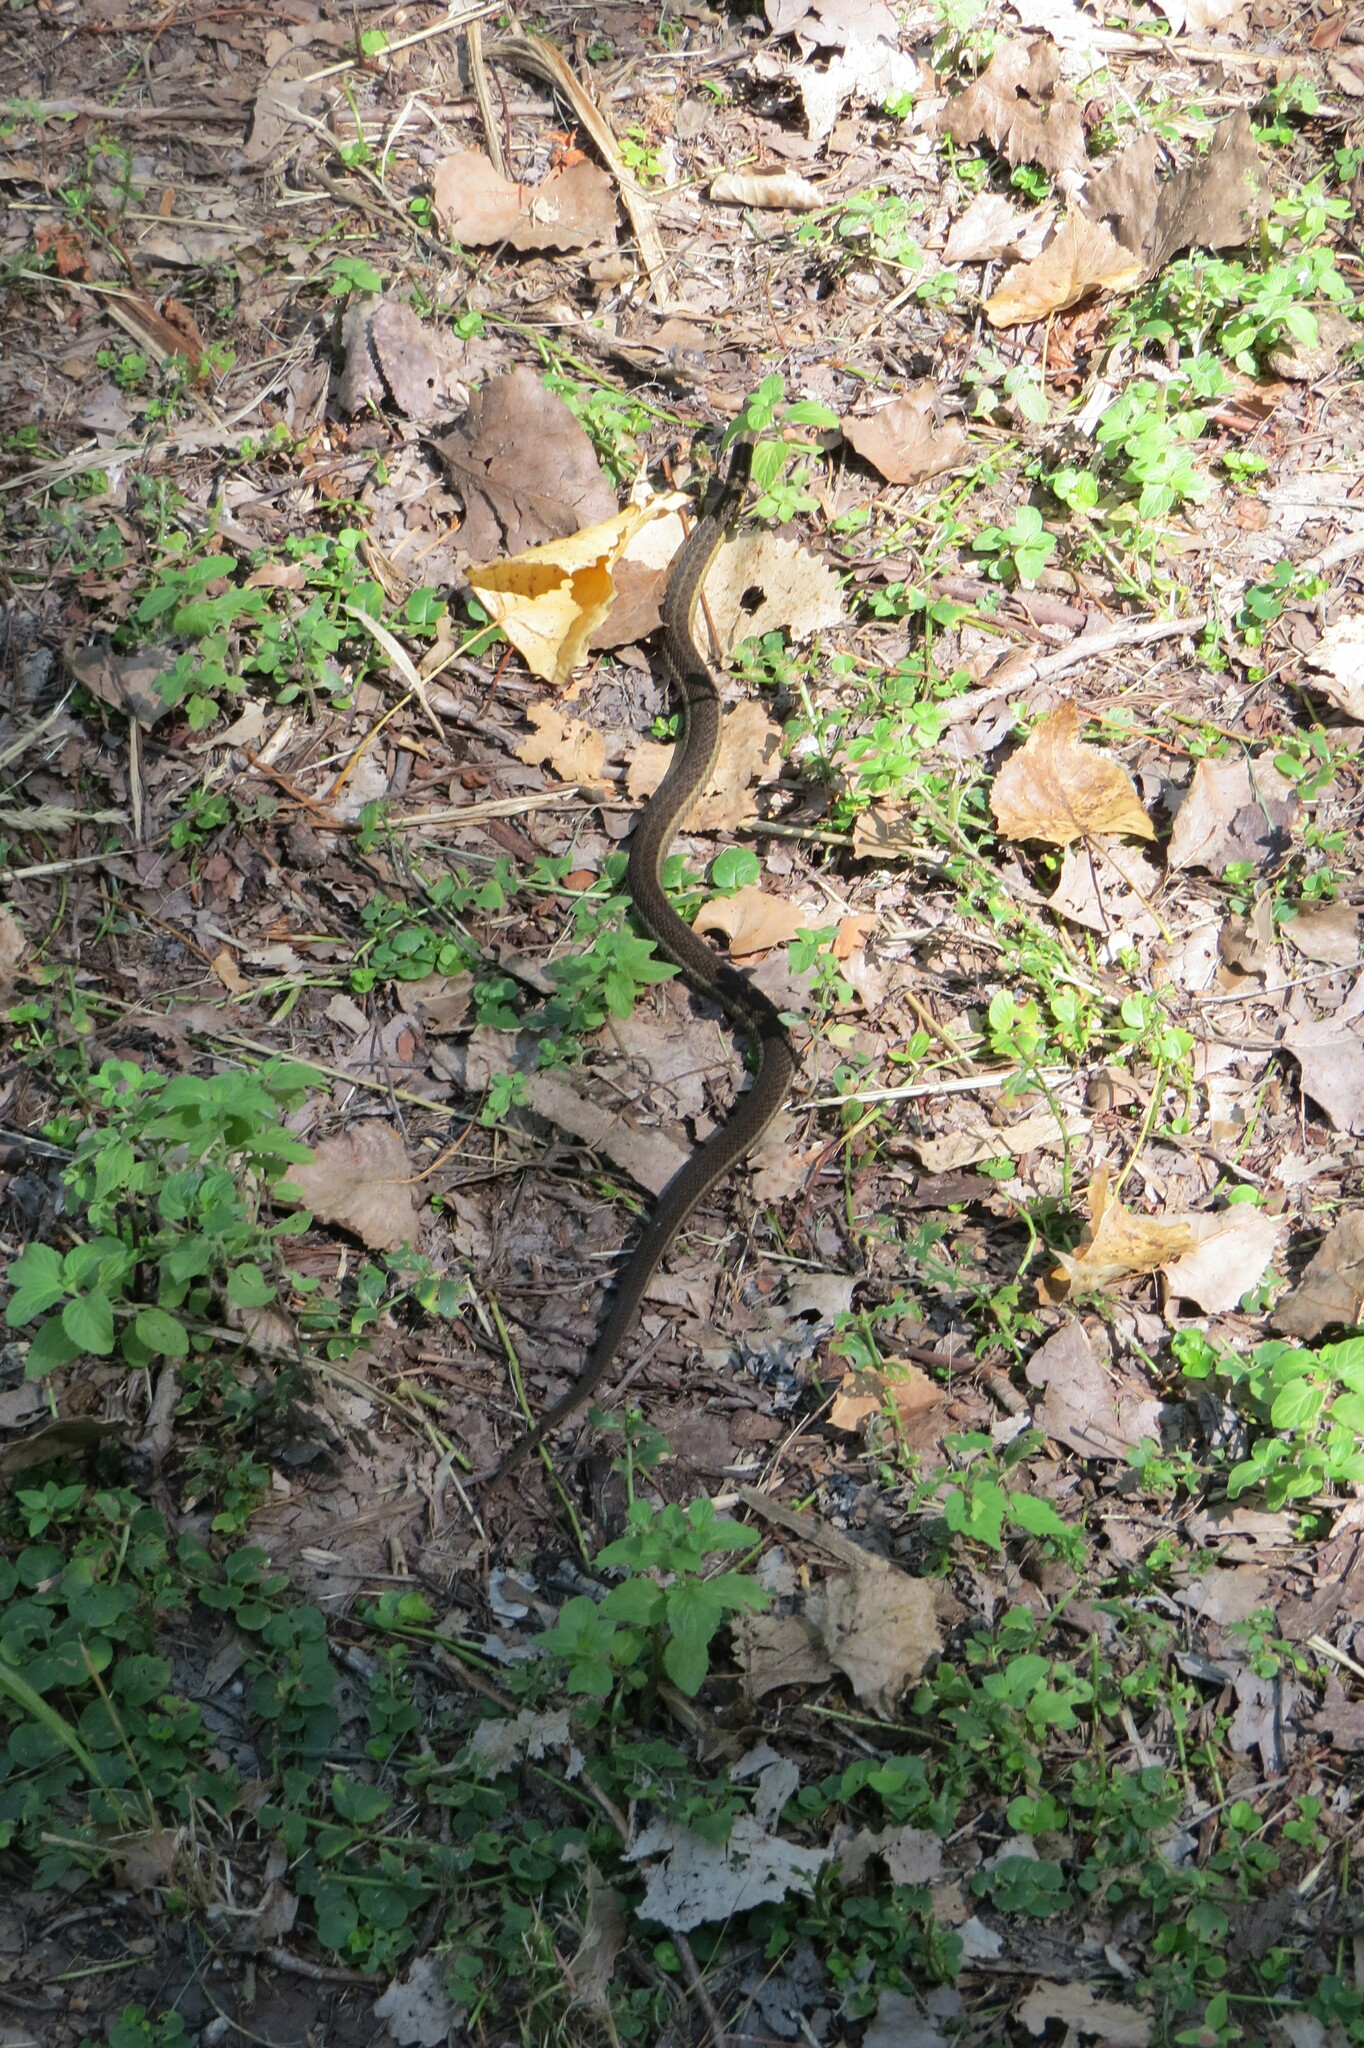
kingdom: Animalia
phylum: Chordata
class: Squamata
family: Colubridae
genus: Thamnophis
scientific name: Thamnophis sirtalis
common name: Common garter snake
